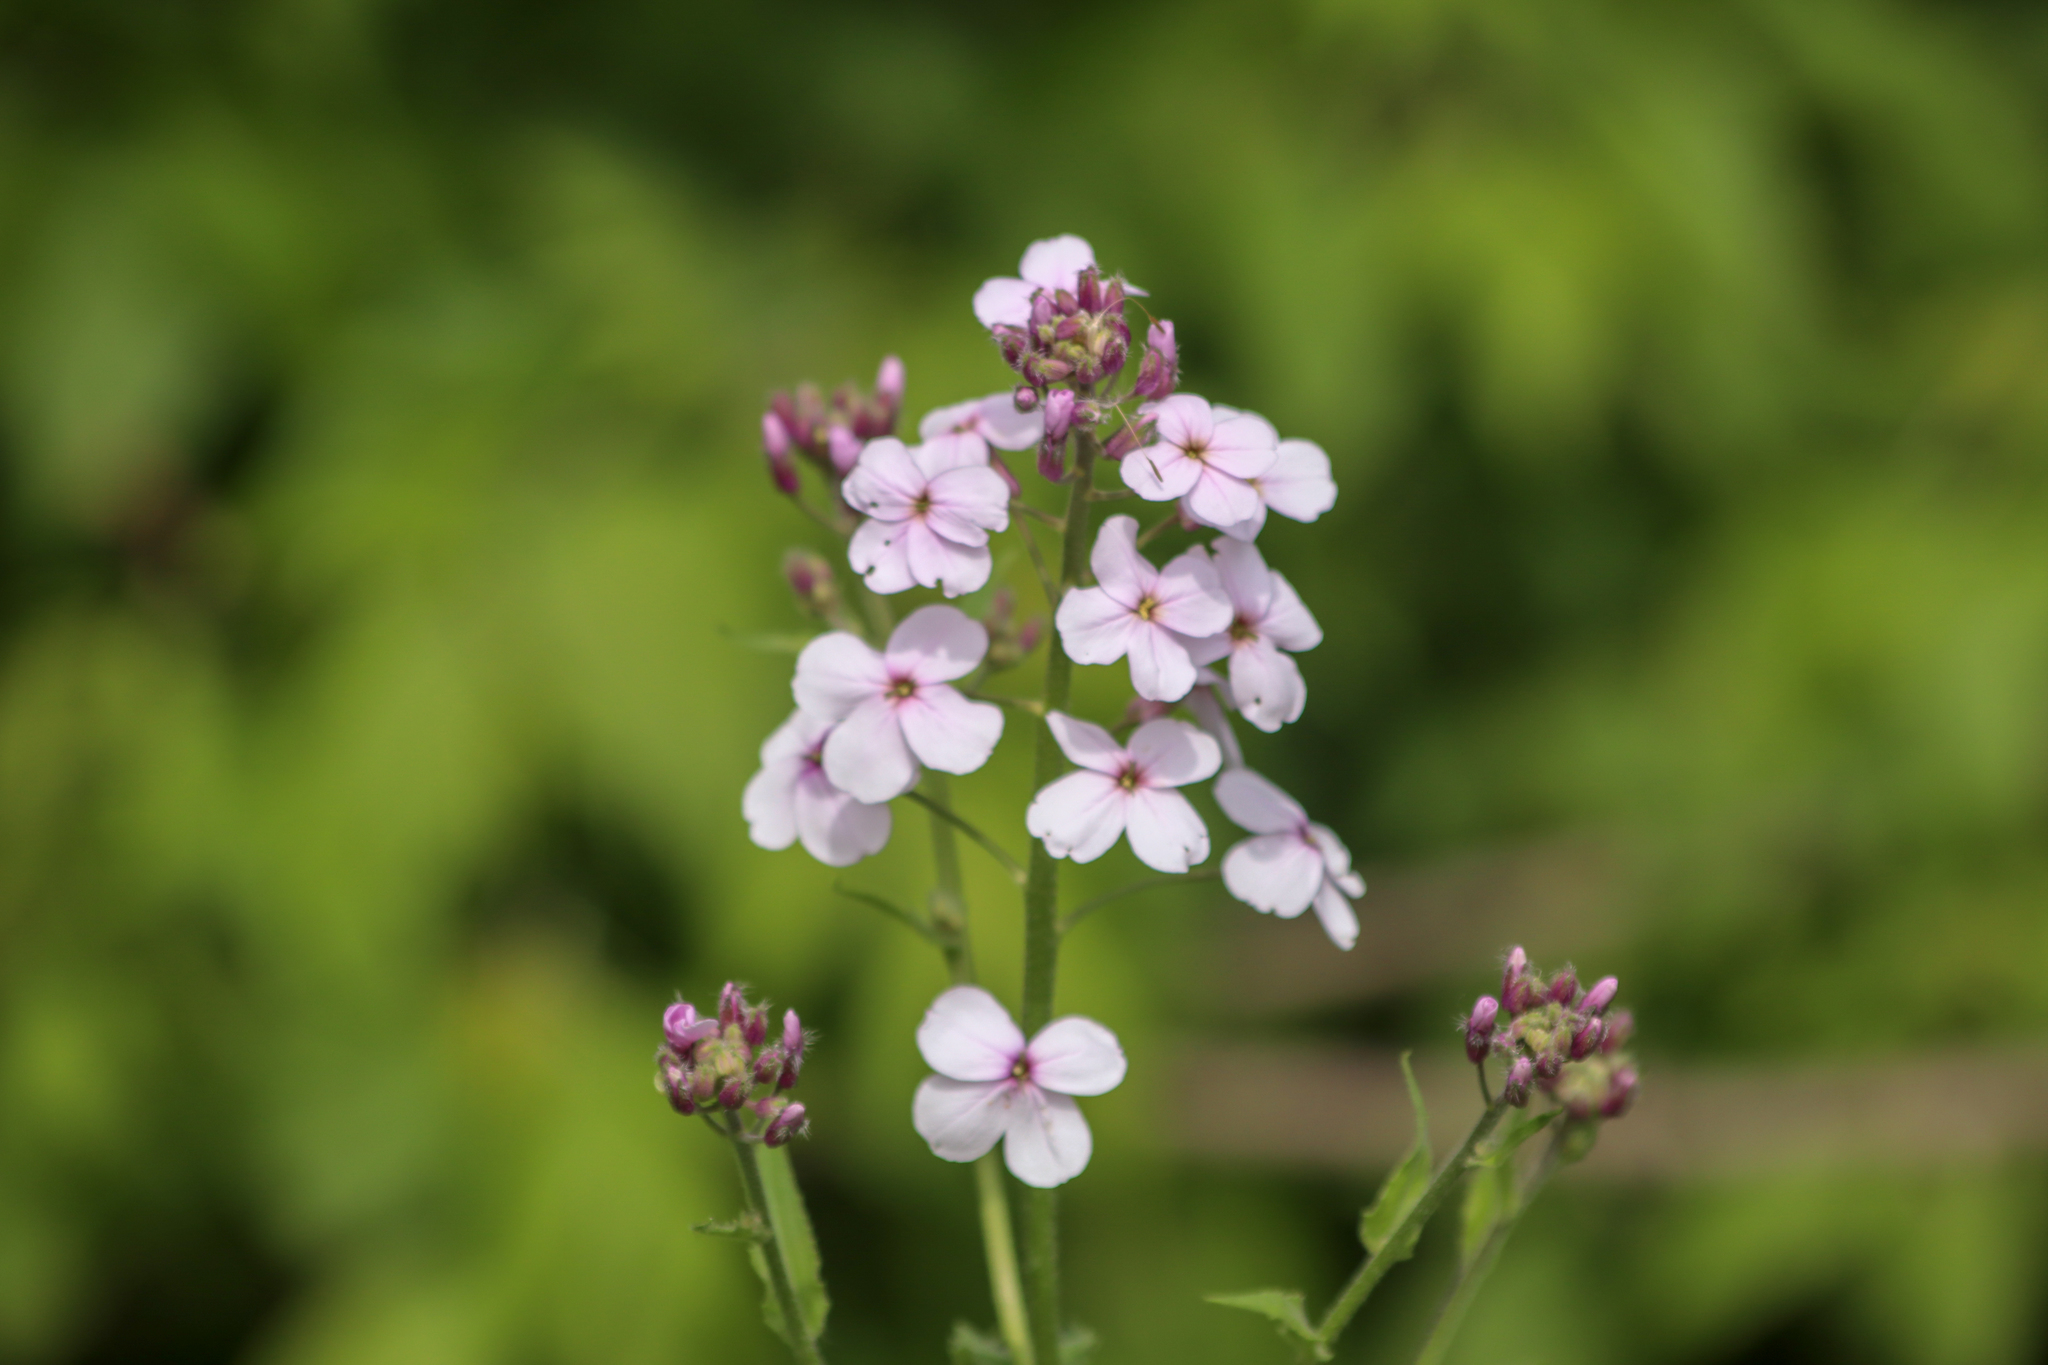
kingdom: Plantae
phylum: Tracheophyta
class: Magnoliopsida
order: Brassicales
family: Brassicaceae
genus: Hesperis
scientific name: Hesperis matronalis
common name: Dame's-violet
